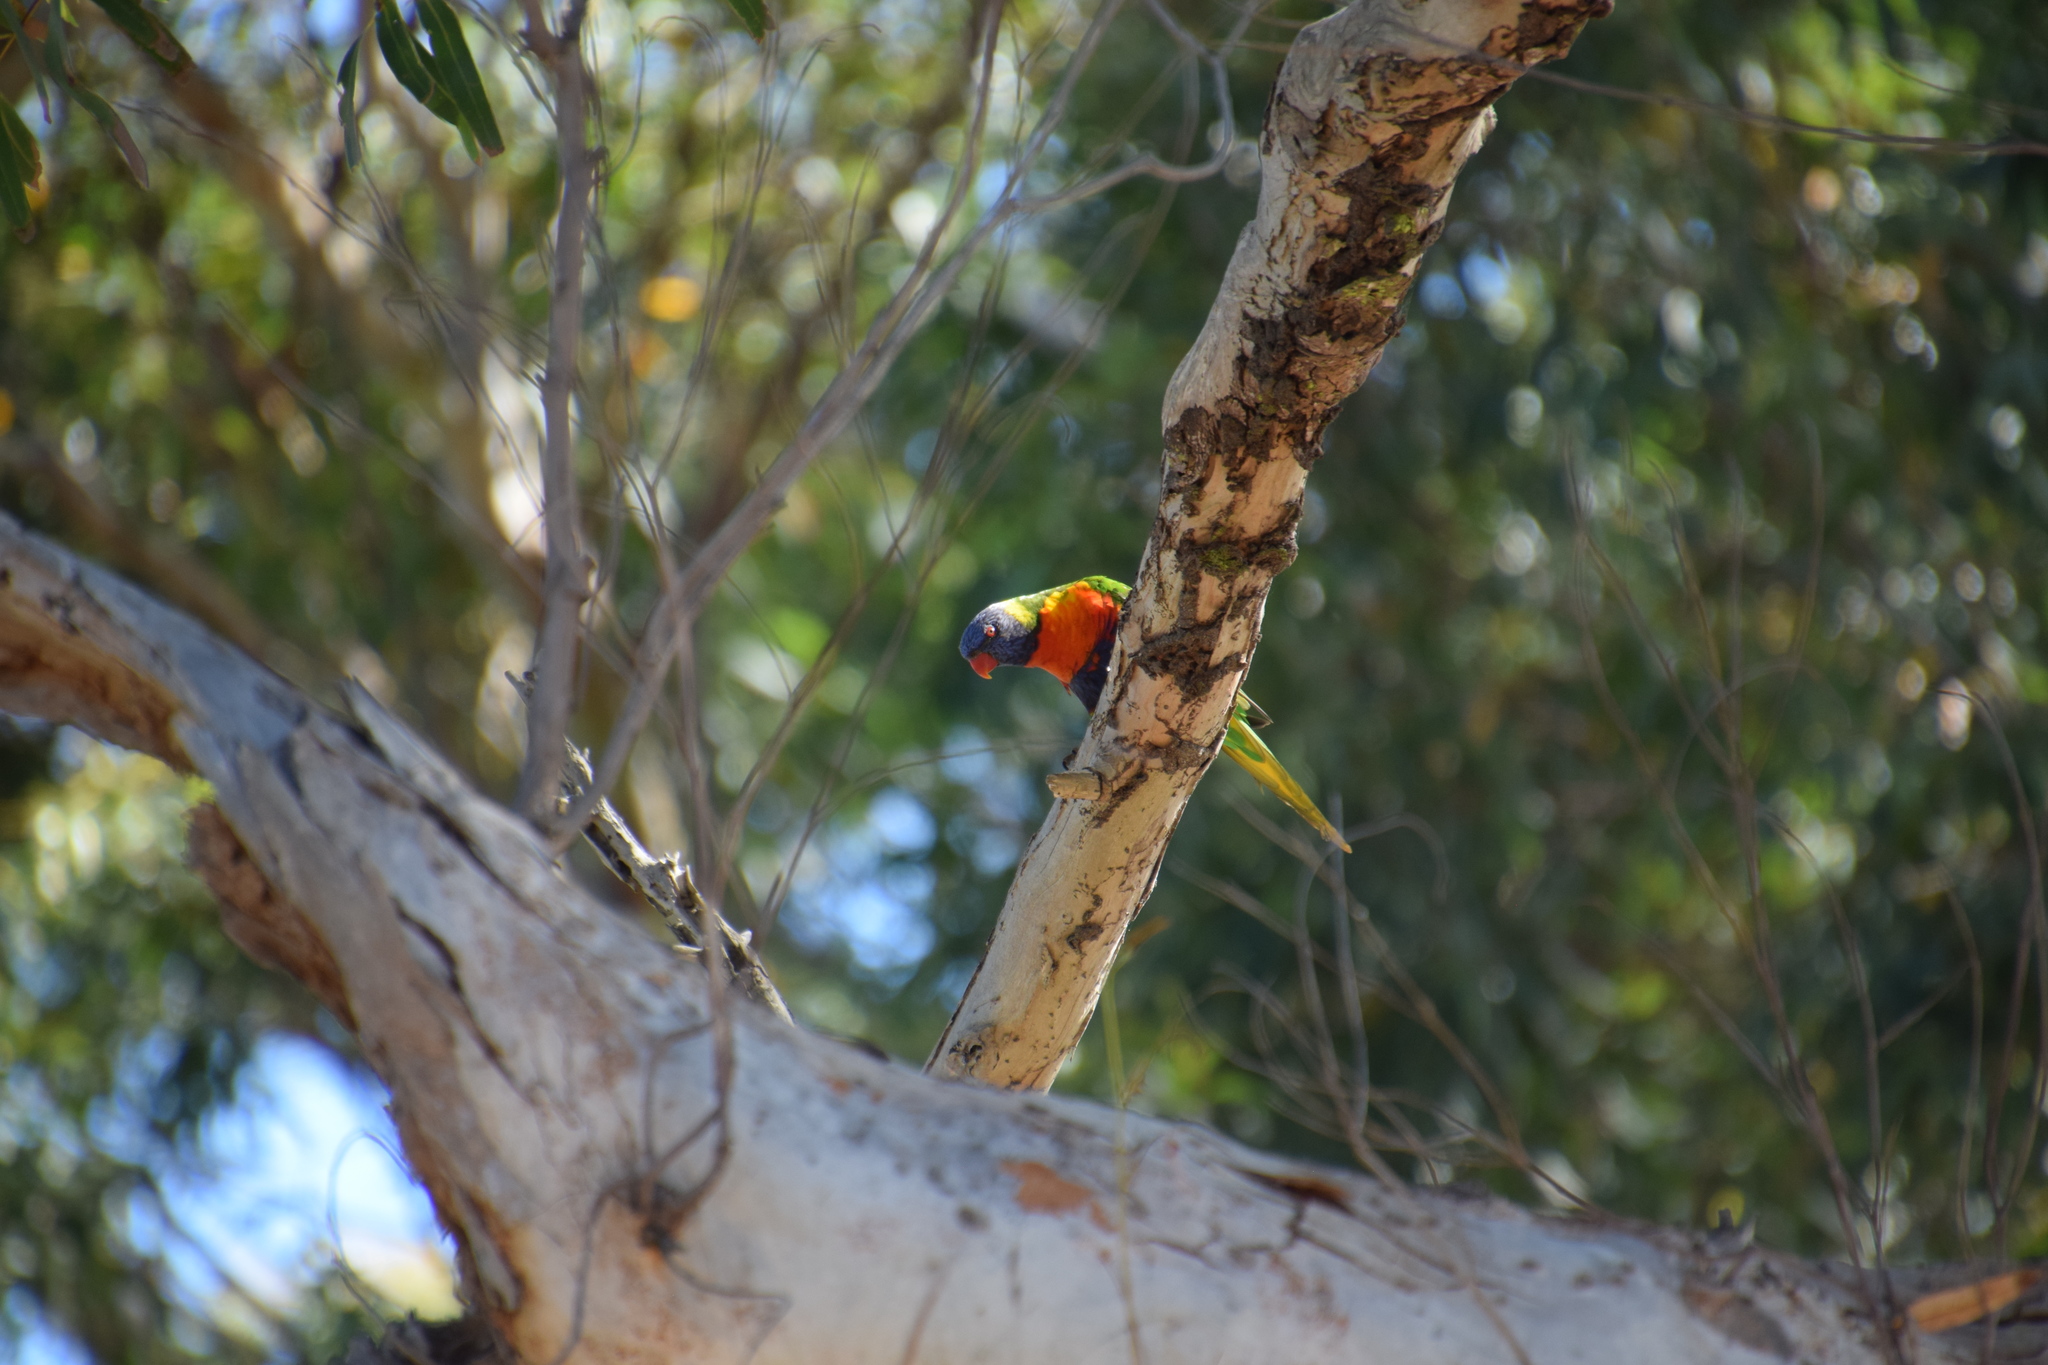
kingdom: Animalia
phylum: Chordata
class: Aves
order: Psittaciformes
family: Psittacidae
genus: Trichoglossus
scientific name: Trichoglossus haematodus
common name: Coconut lorikeet
